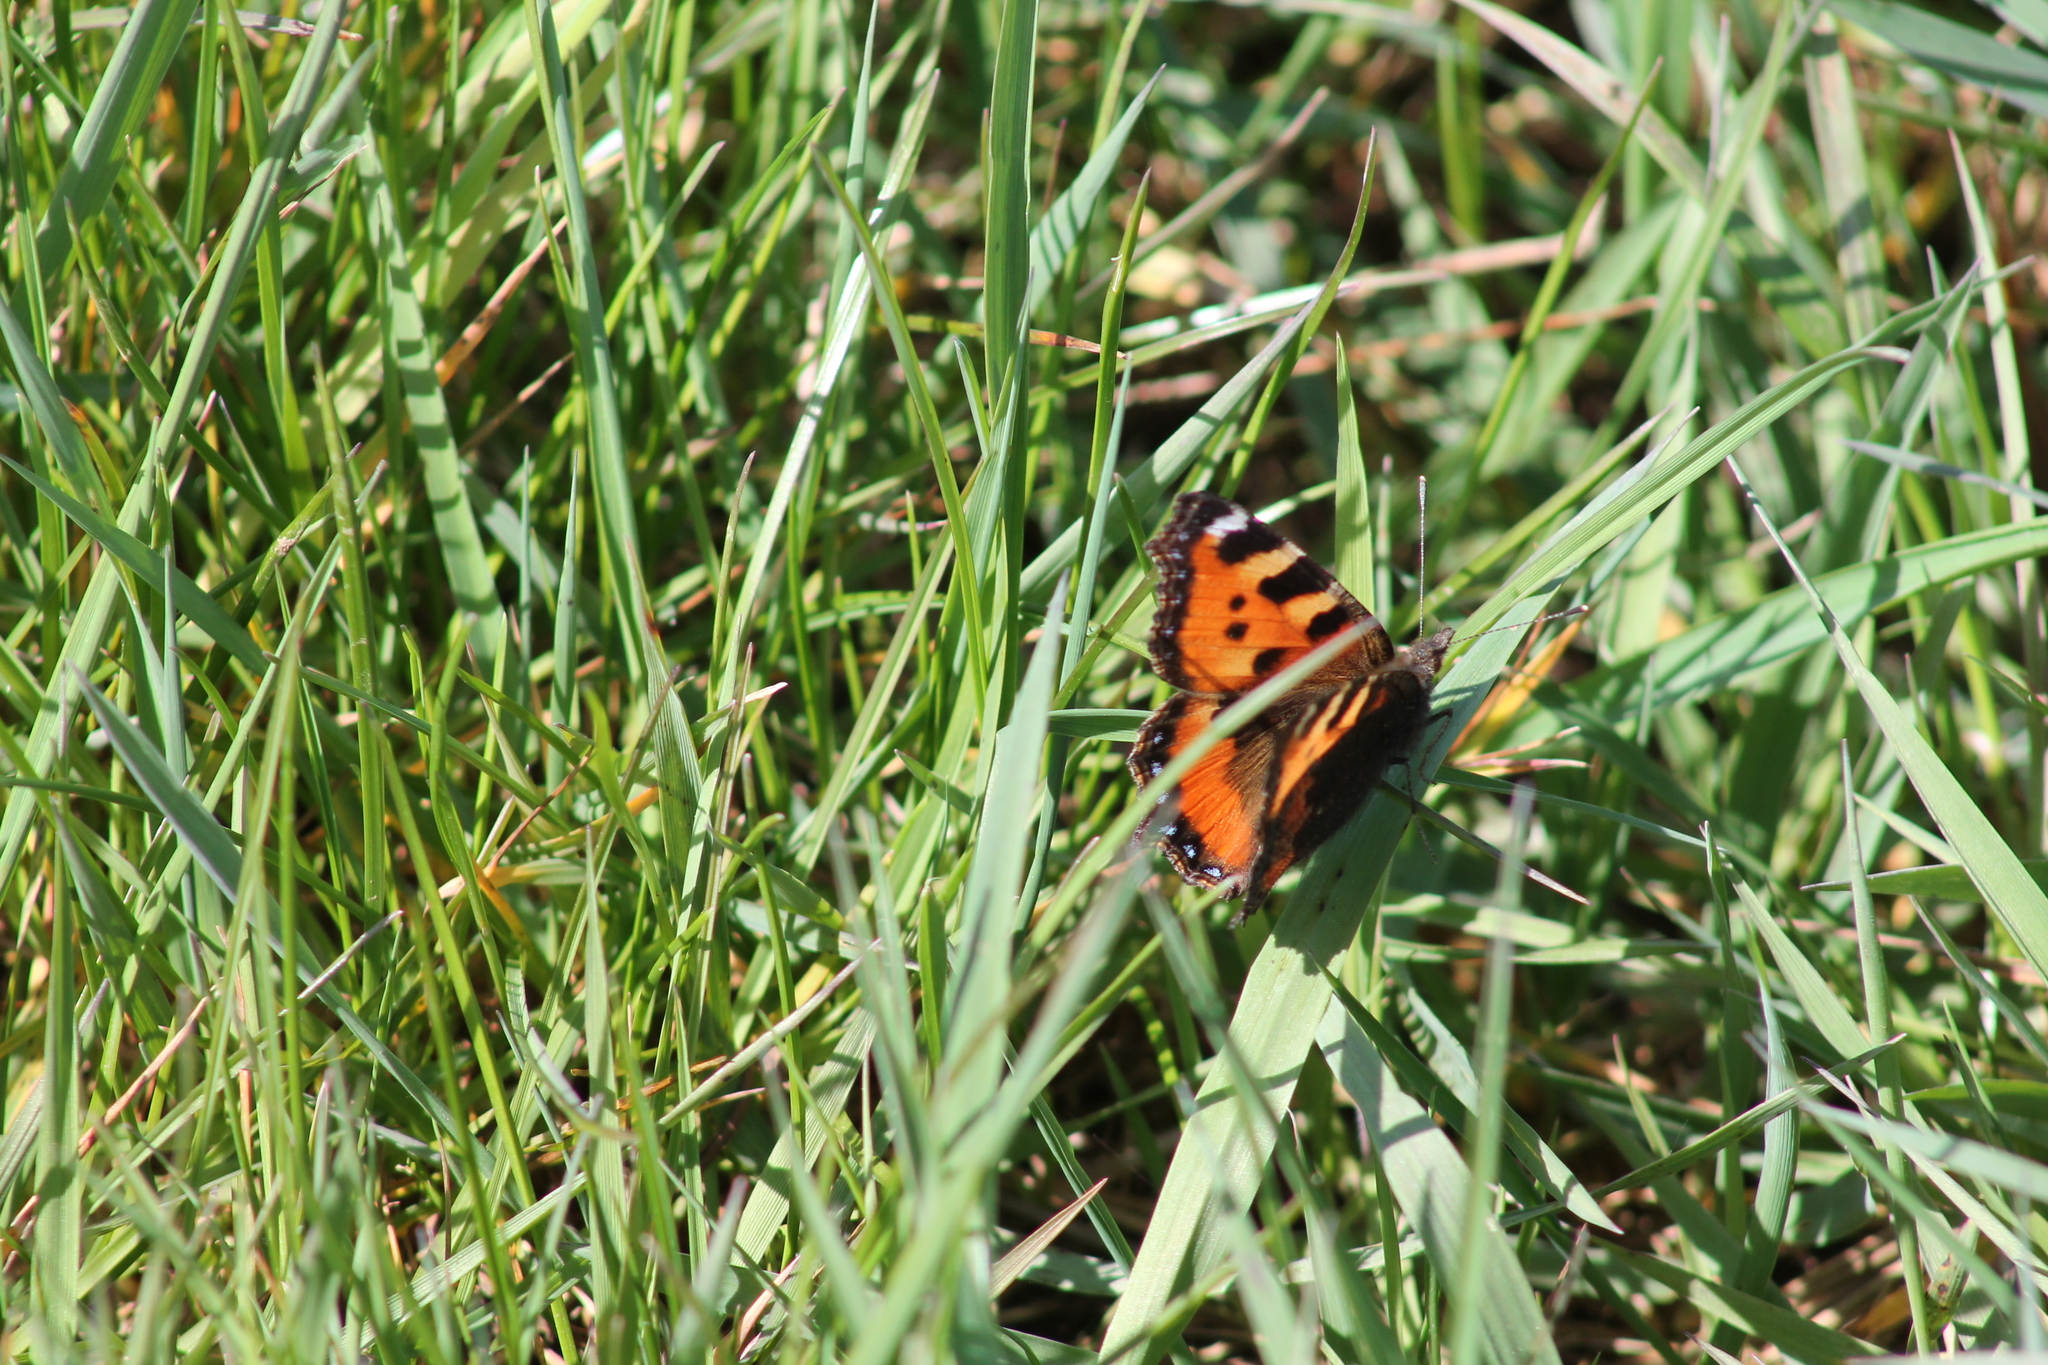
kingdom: Animalia
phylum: Arthropoda
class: Insecta
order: Lepidoptera
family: Nymphalidae
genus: Aglais
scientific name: Aglais urticae
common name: Small tortoiseshell
